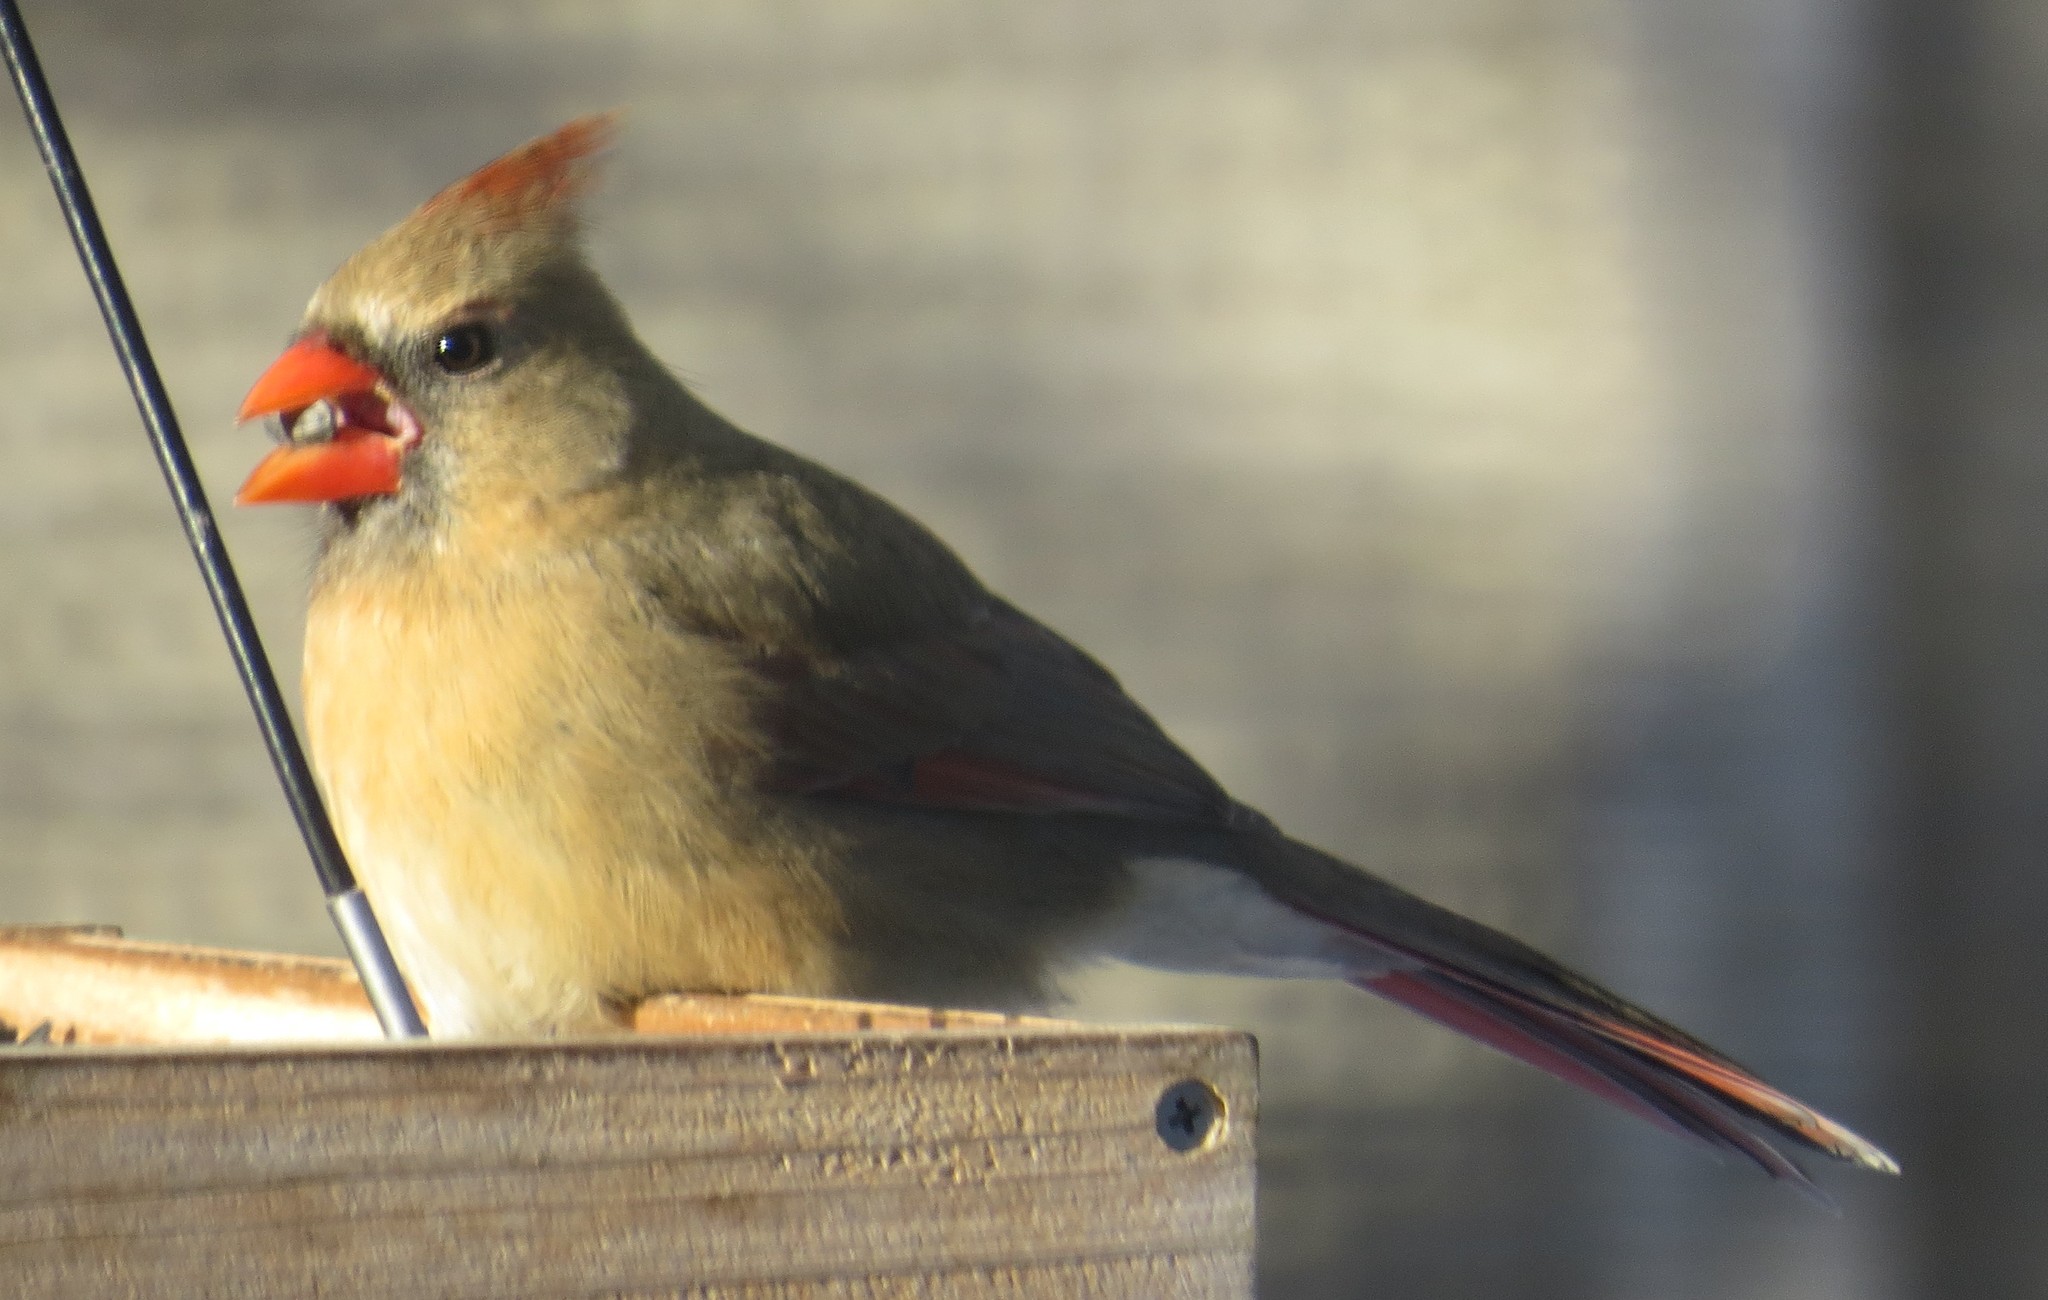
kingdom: Animalia
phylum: Chordata
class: Aves
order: Passeriformes
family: Cardinalidae
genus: Cardinalis
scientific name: Cardinalis cardinalis
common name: Northern cardinal
